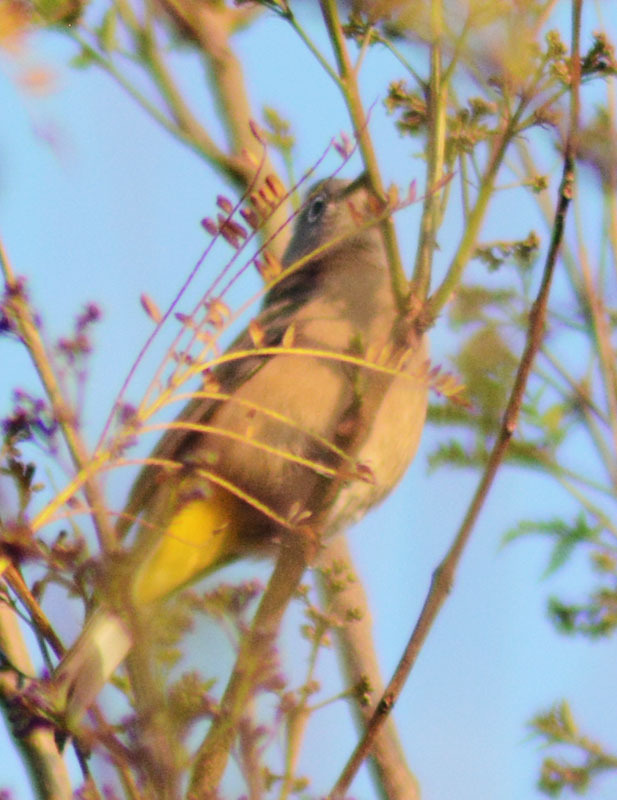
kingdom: Animalia
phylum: Chordata
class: Aves
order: Passeriformes
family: Ptilogonatidae
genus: Ptilogonys
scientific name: Ptilogonys cinereus
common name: Gray silky-flycatcher
